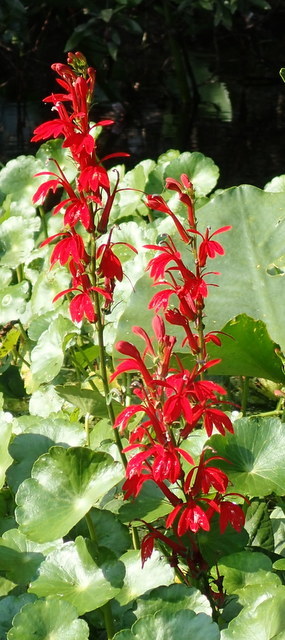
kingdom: Plantae
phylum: Tracheophyta
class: Magnoliopsida
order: Asterales
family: Campanulaceae
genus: Lobelia
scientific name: Lobelia cardinalis
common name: Cardinal flower
